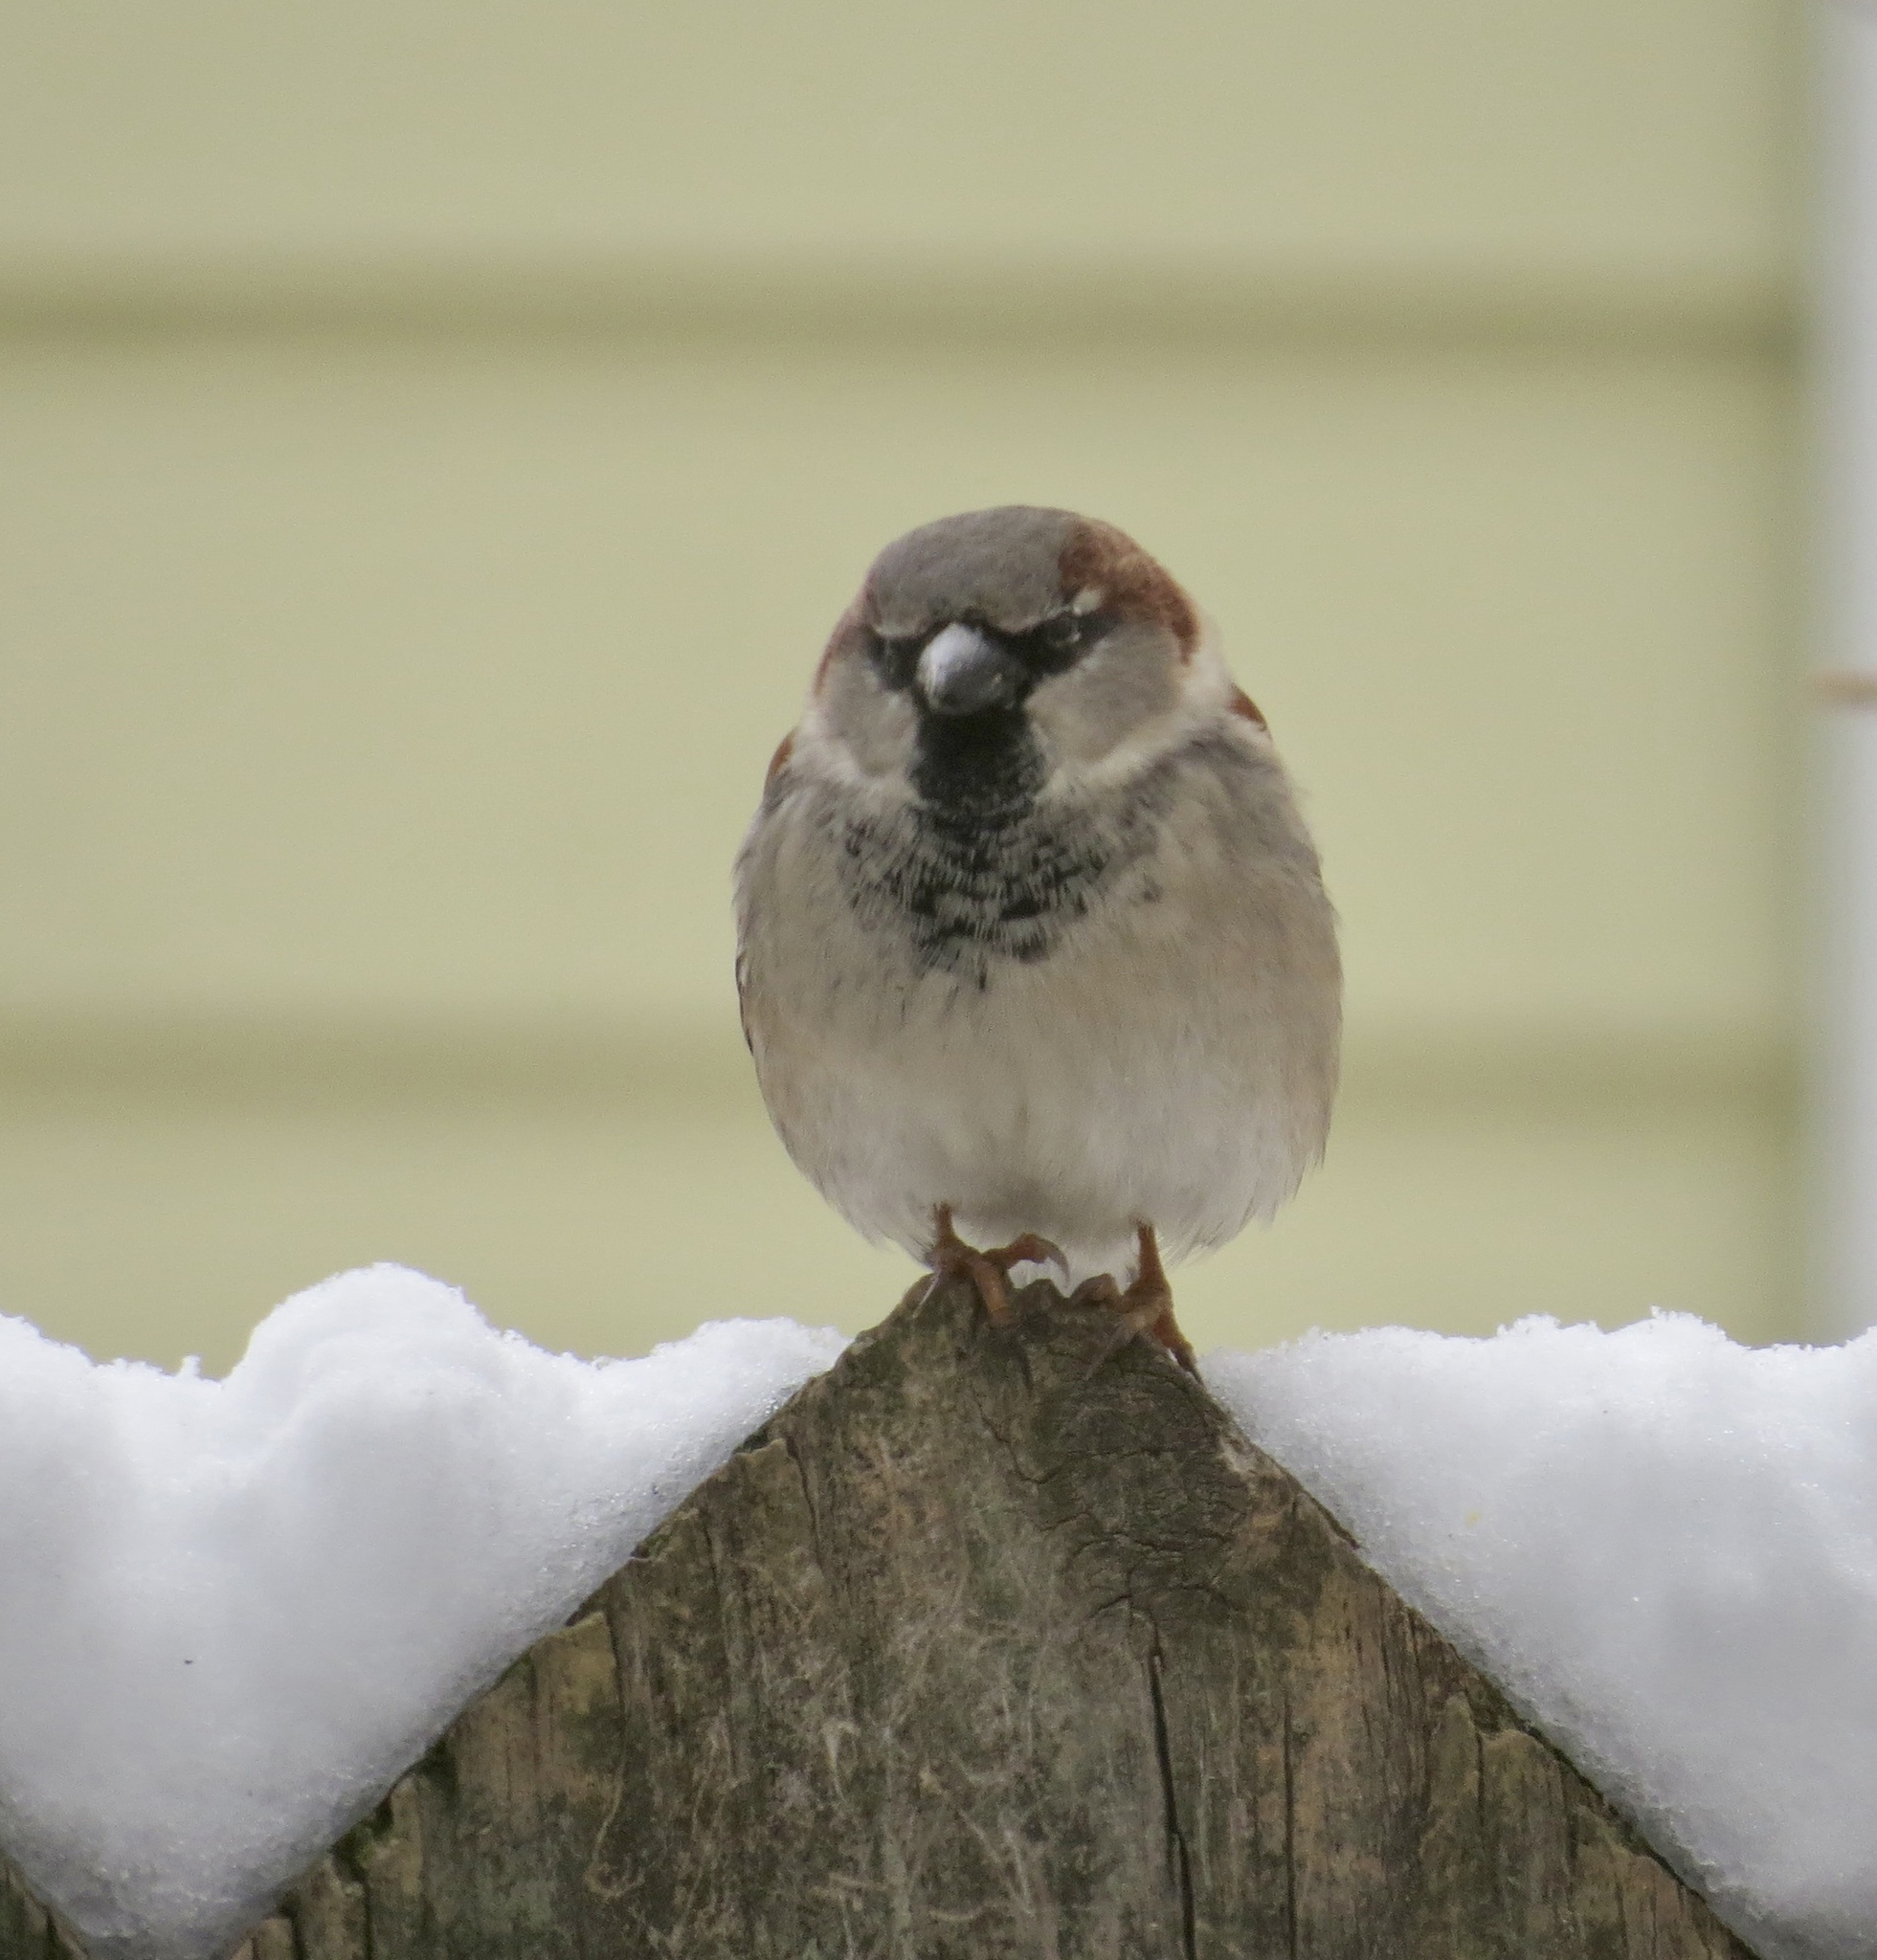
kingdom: Animalia
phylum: Chordata
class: Aves
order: Passeriformes
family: Passeridae
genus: Passer
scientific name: Passer domesticus
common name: House sparrow
